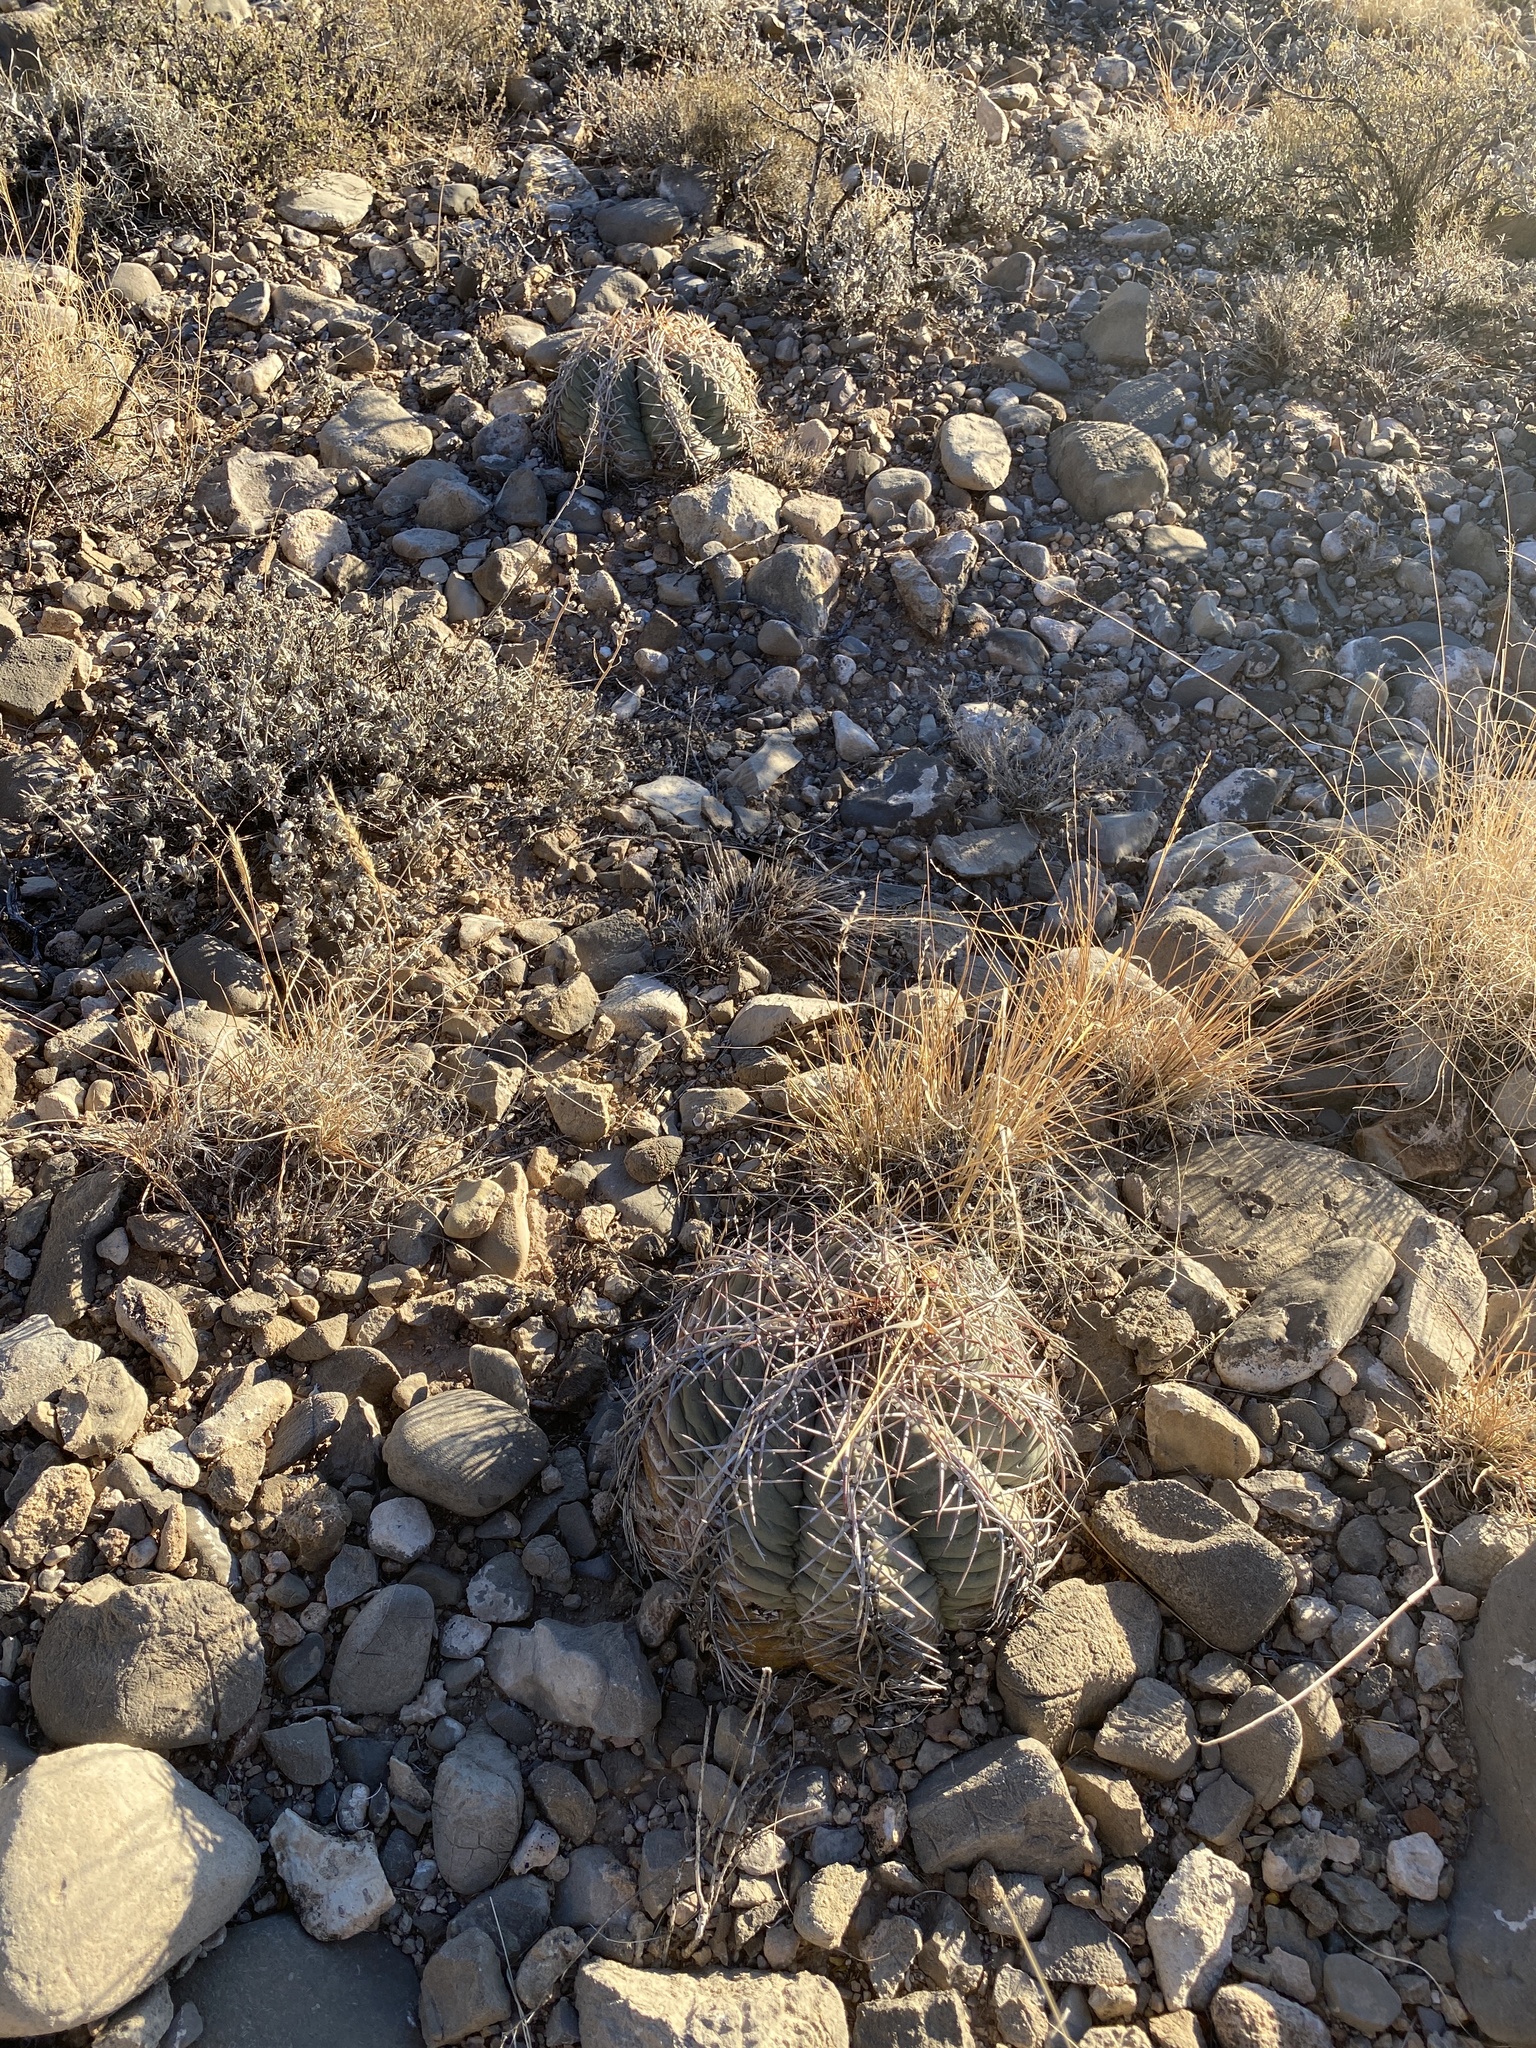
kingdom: Plantae
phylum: Tracheophyta
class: Magnoliopsida
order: Caryophyllales
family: Cactaceae
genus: Echinocactus
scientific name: Echinocactus horizonthalonius
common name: Devilshead
